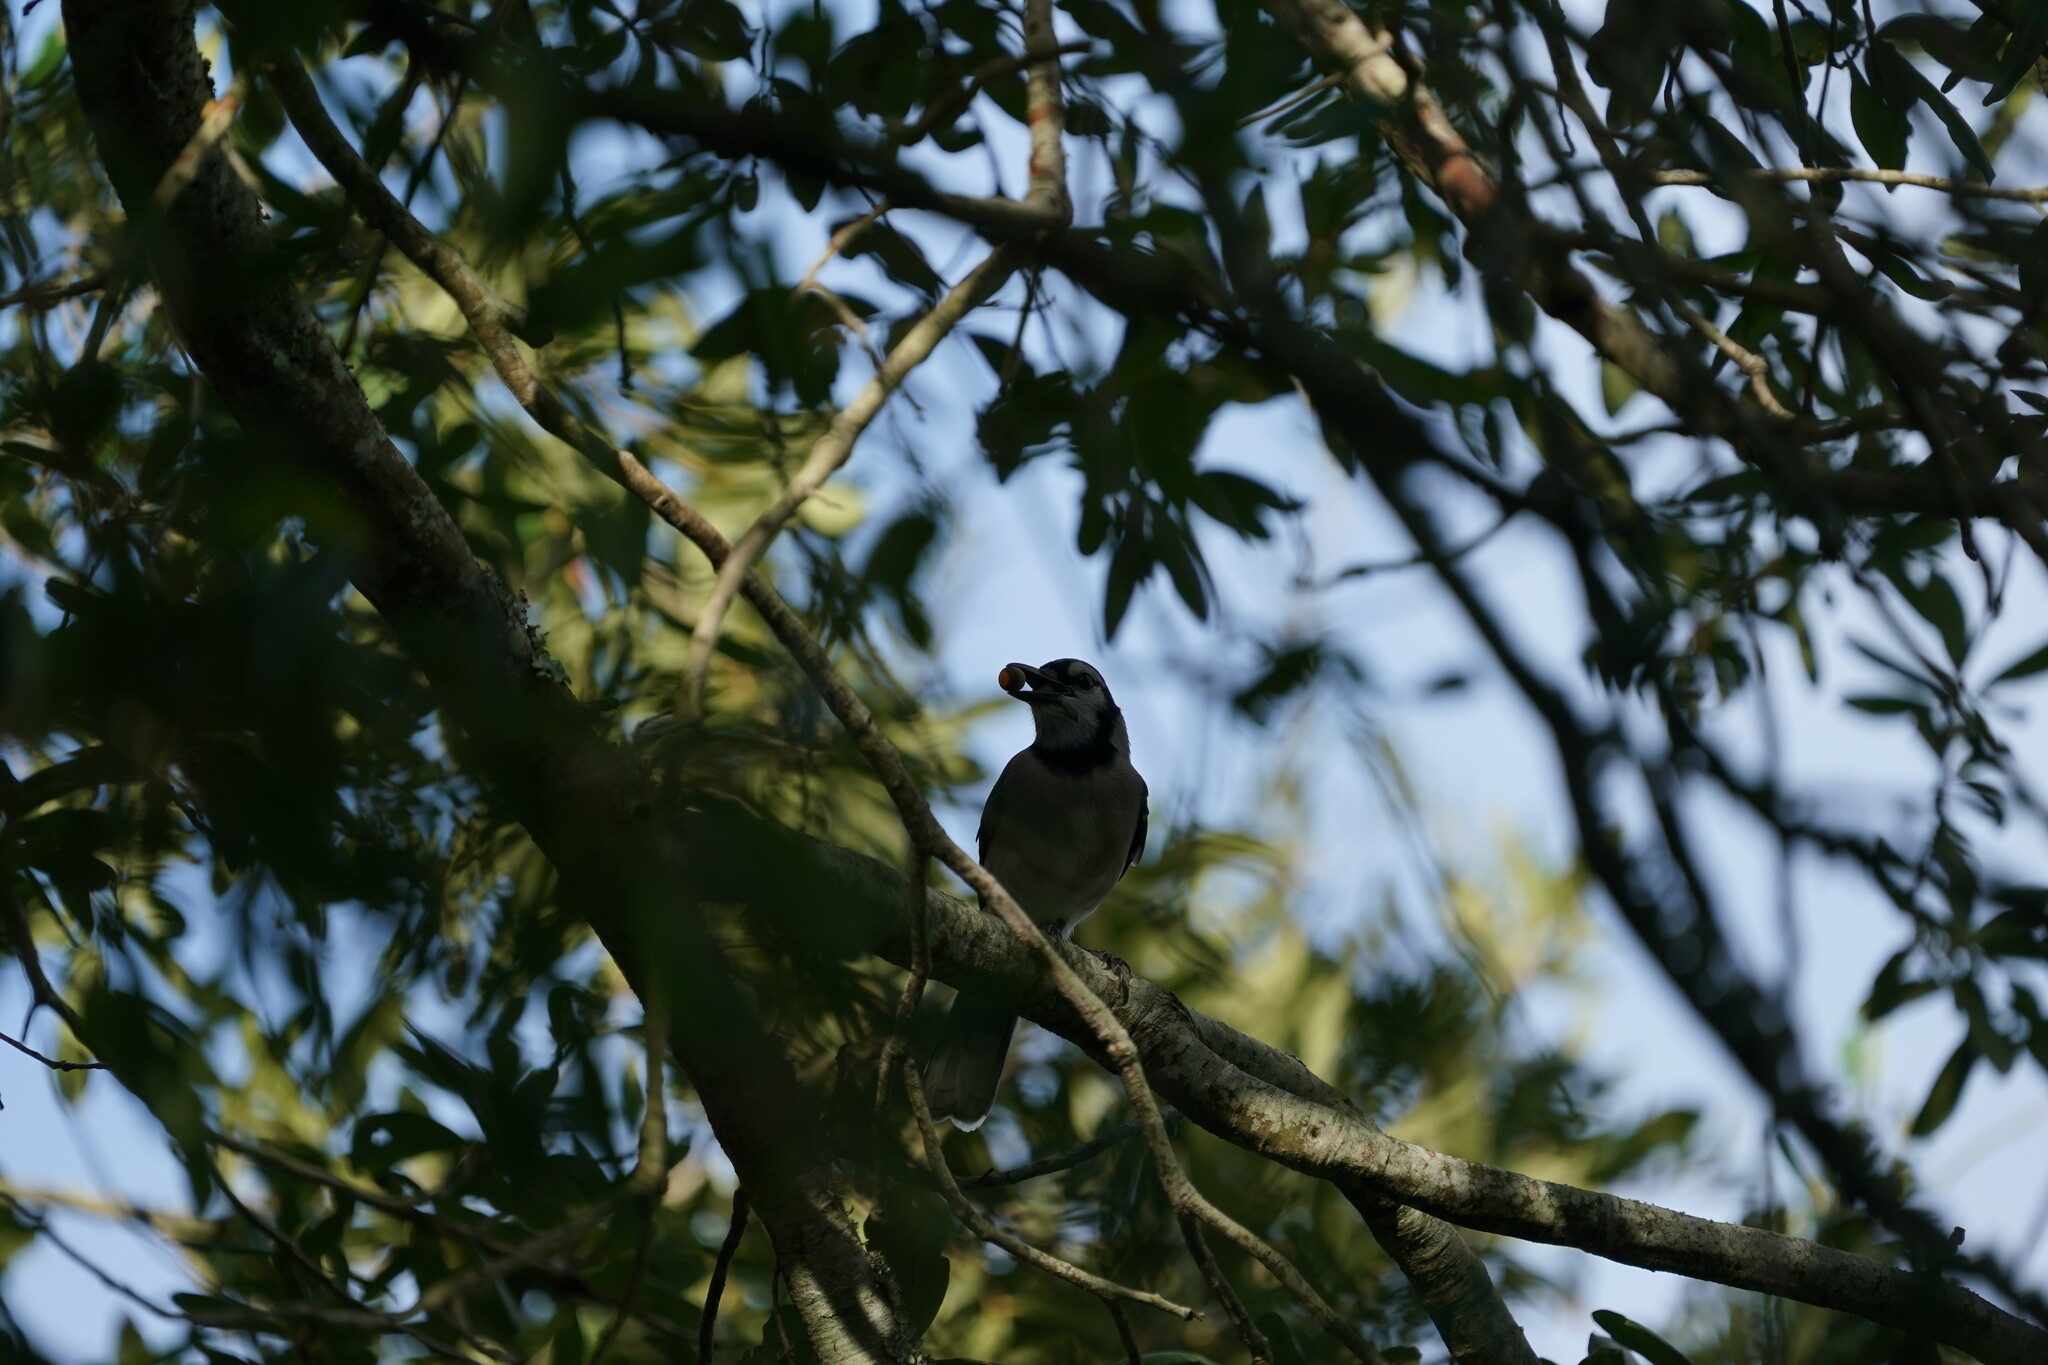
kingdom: Animalia
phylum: Chordata
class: Aves
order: Passeriformes
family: Corvidae
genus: Cyanocitta
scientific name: Cyanocitta cristata
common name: Blue jay
